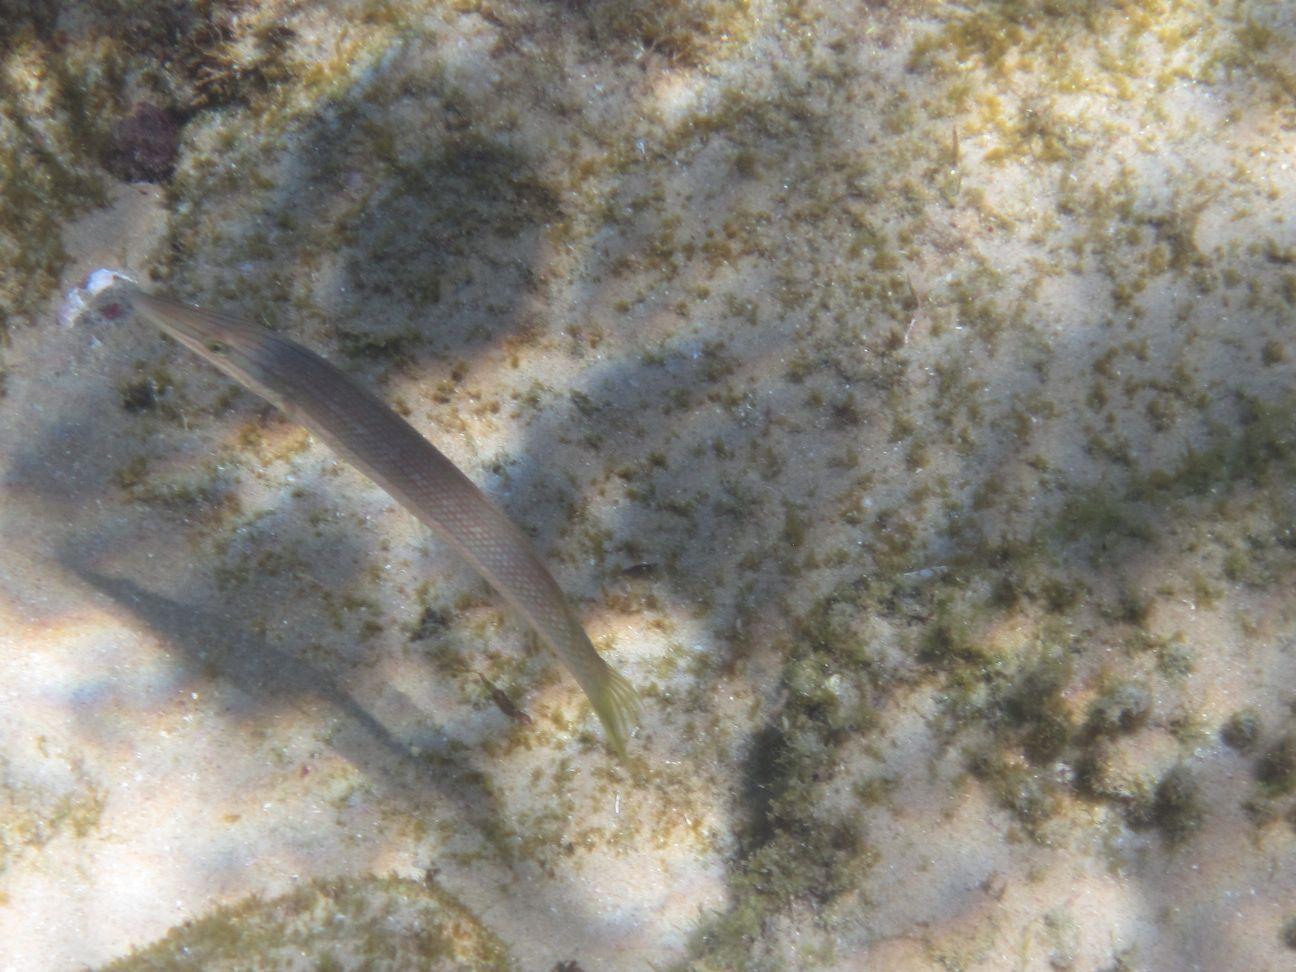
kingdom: Animalia
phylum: Chordata
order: Perciformes
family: Labridae
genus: Cheilio
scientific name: Cheilio inermis
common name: Cigar wrasse
